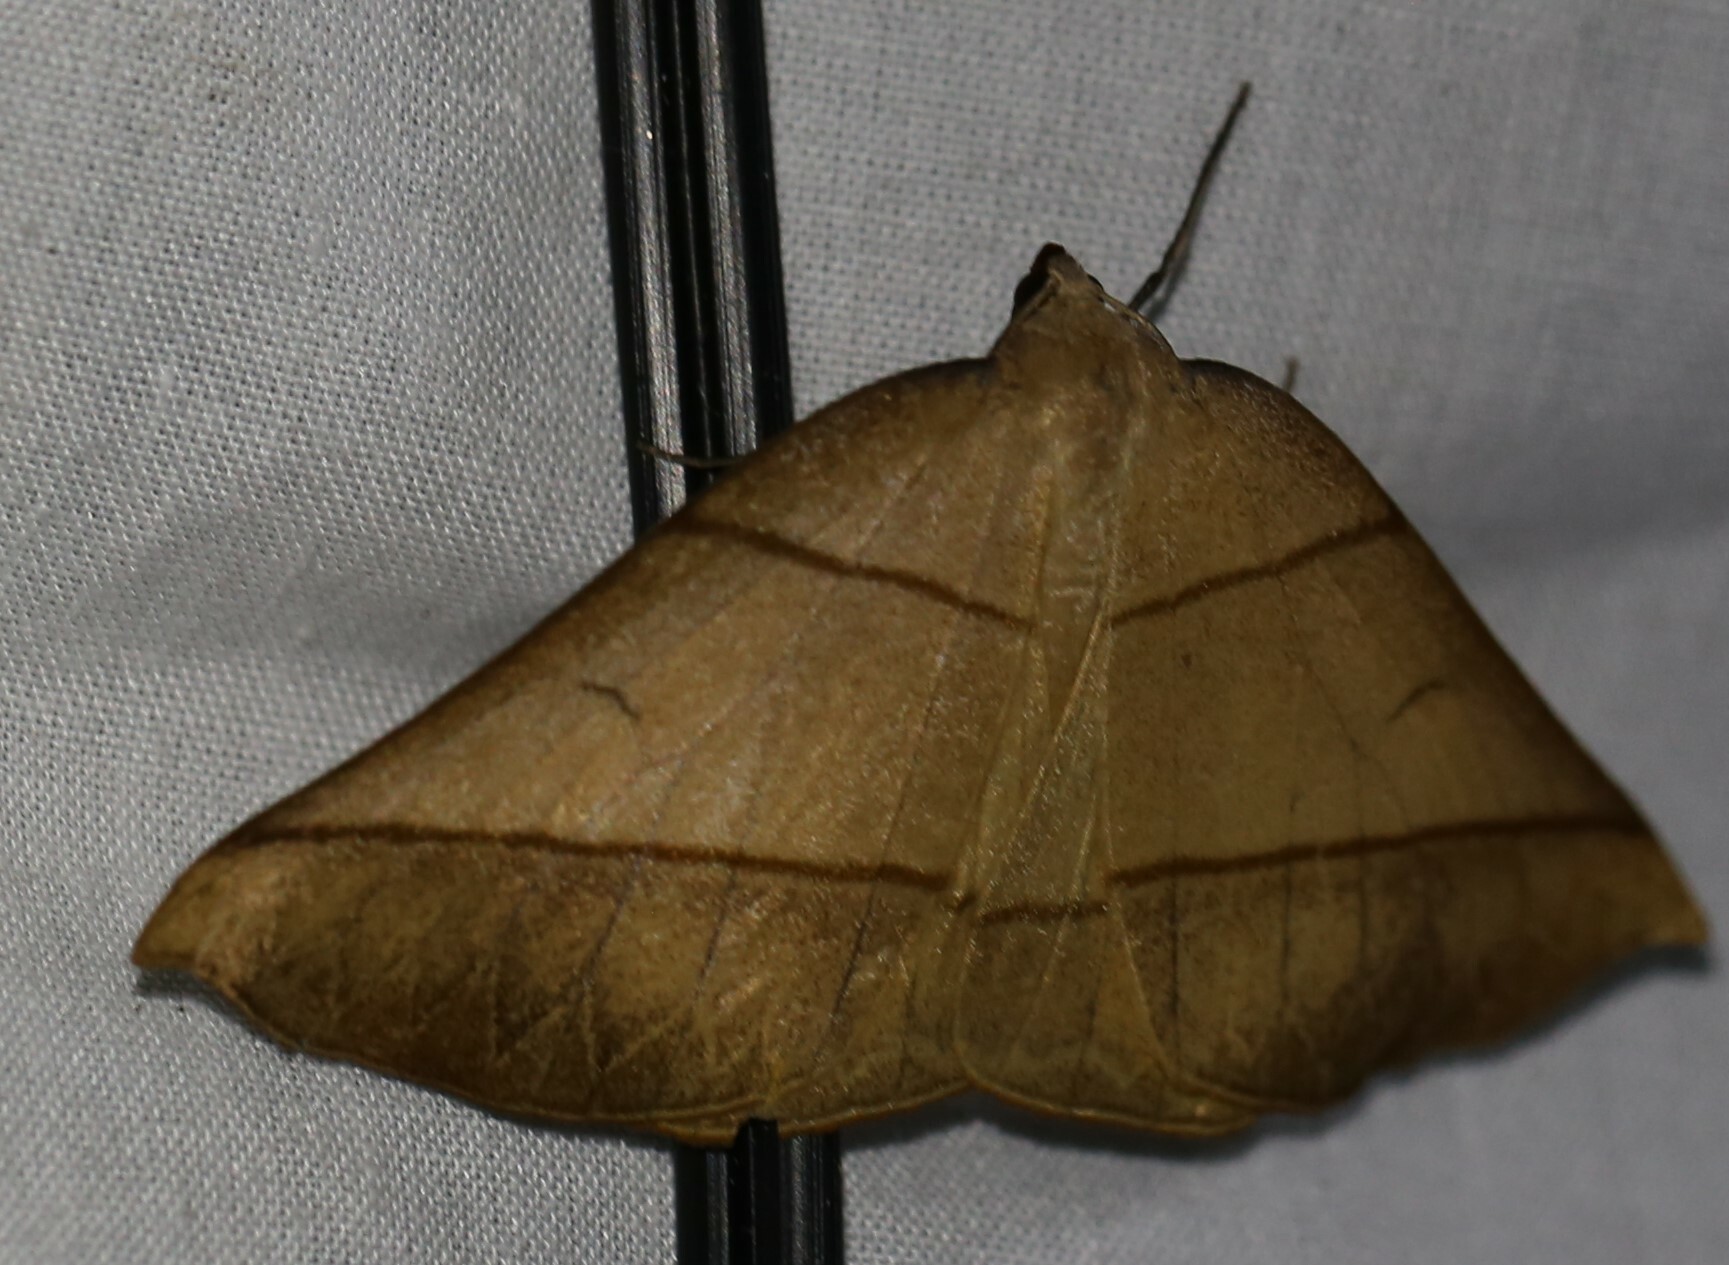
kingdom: Animalia
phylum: Arthropoda
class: Insecta
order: Lepidoptera
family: Geometridae
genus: Systatica
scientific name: Systatica xanthastis
